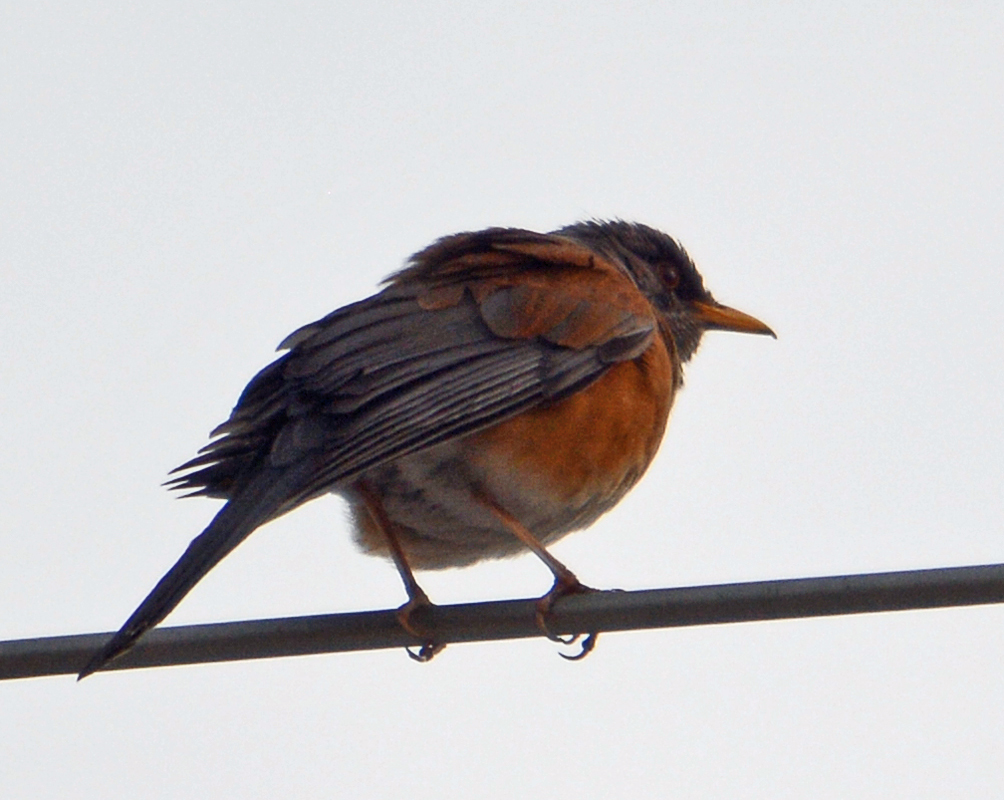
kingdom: Animalia
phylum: Chordata
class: Aves
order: Passeriformes
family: Turdidae
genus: Turdus
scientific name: Turdus rufopalliatus
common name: Rufous-backed robin
